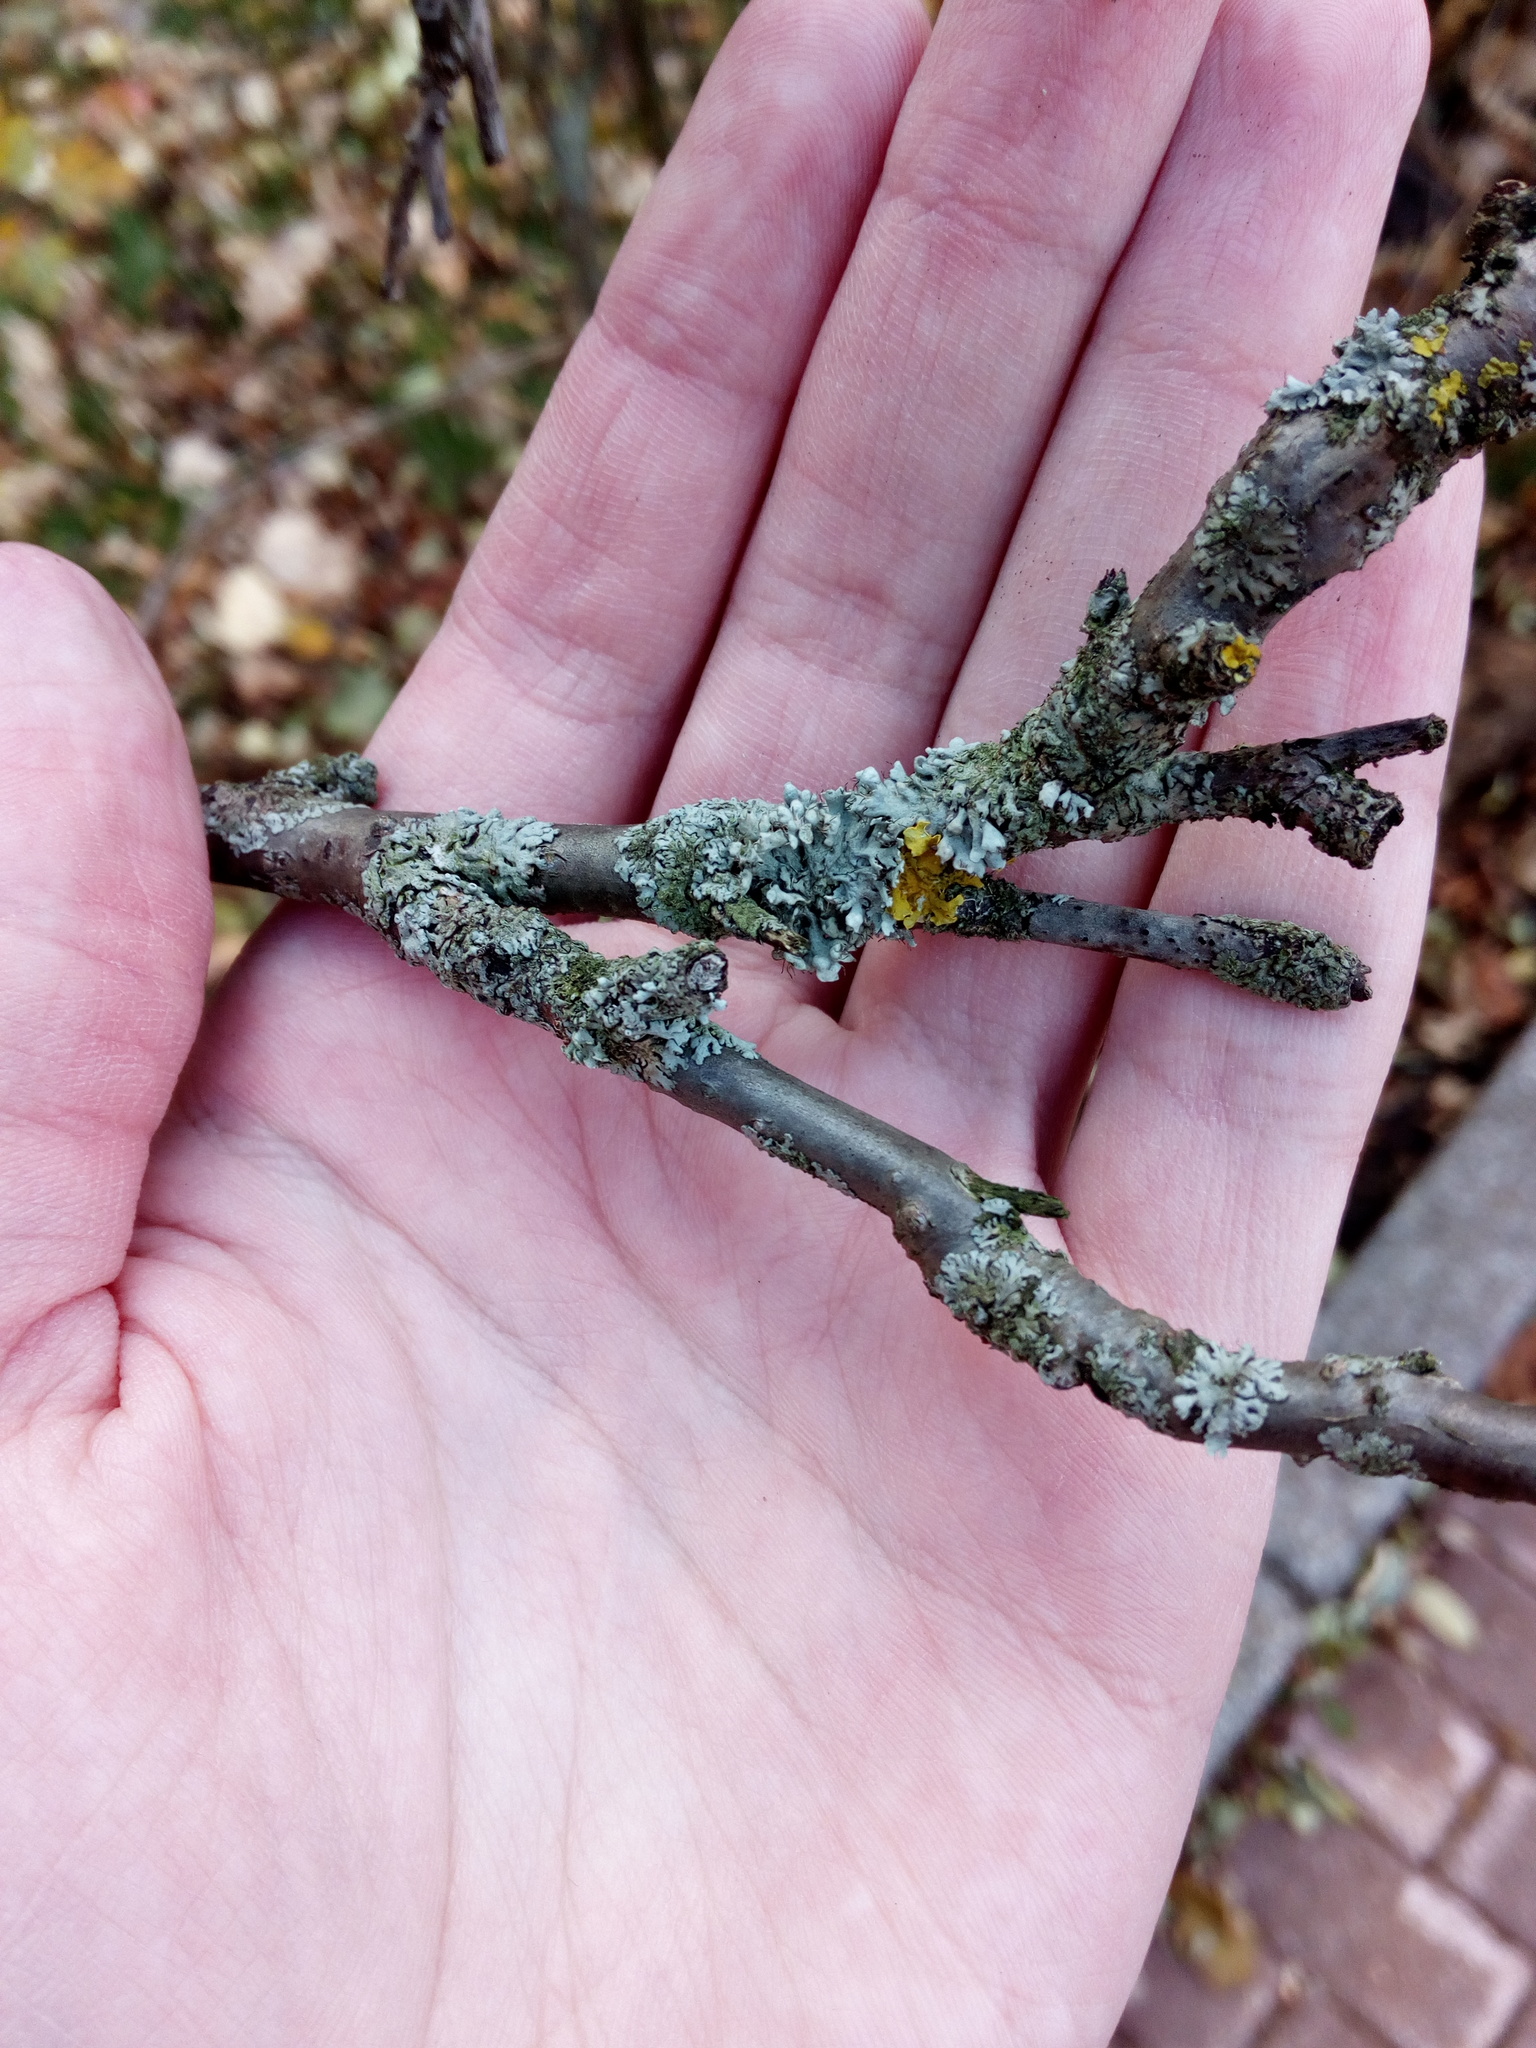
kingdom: Fungi
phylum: Ascomycota
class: Lecanoromycetes
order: Caliciales
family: Physciaceae
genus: Physcia
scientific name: Physcia adscendens
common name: Hooded rosette lichen
